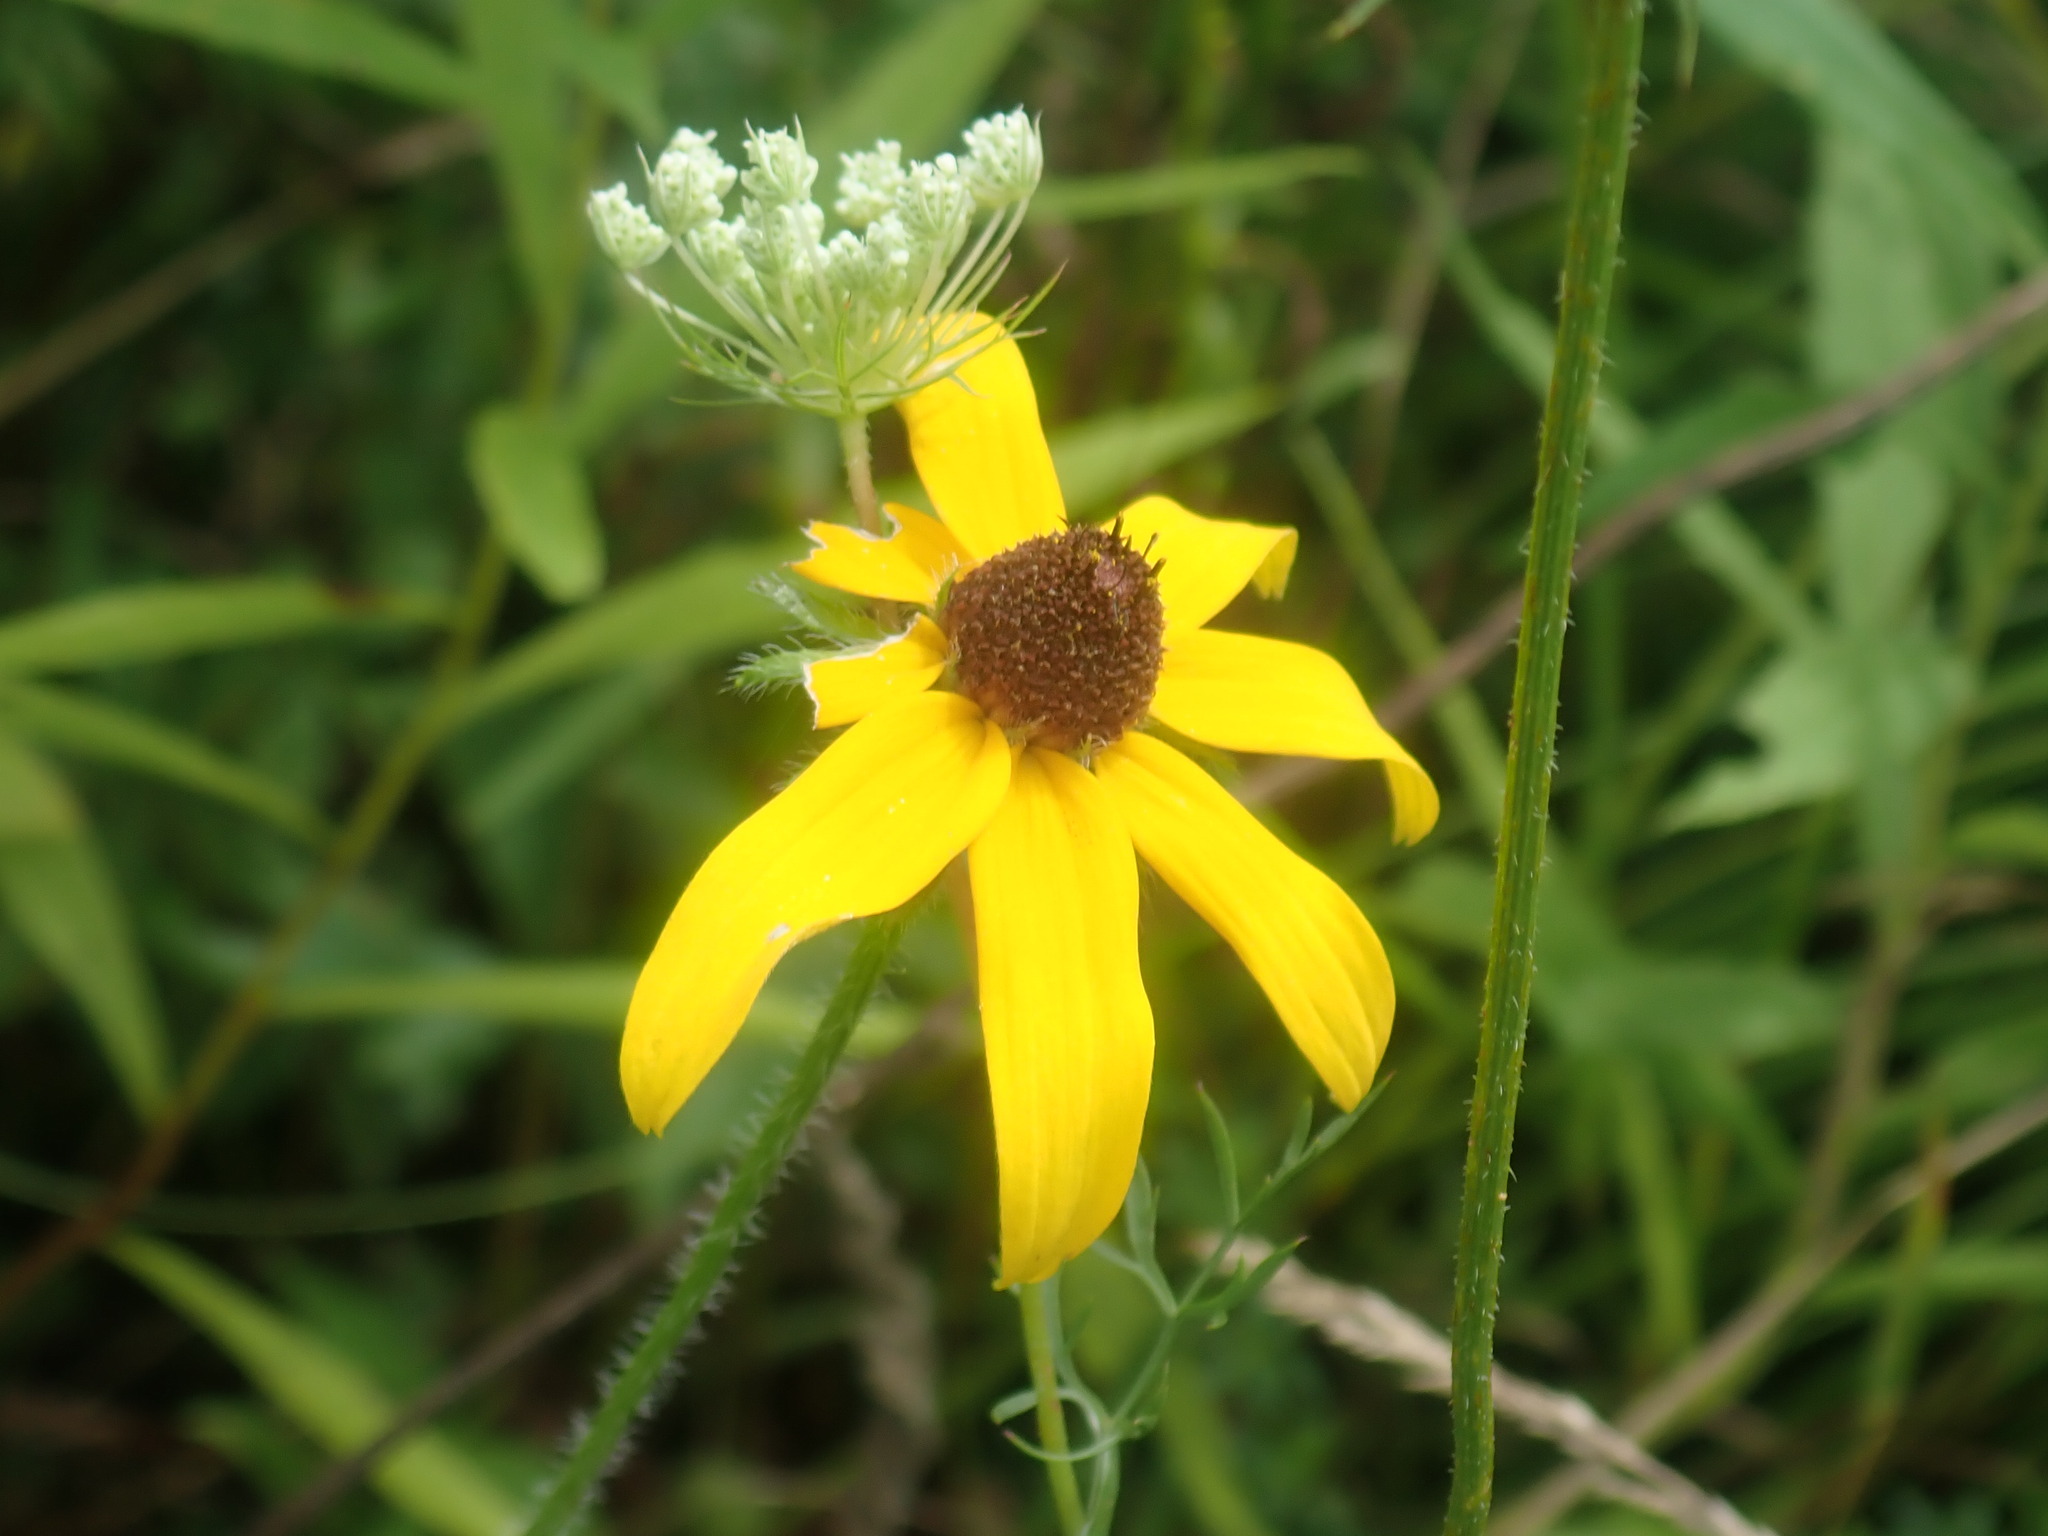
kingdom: Plantae
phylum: Tracheophyta
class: Magnoliopsida
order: Asterales
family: Asteraceae
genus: Rudbeckia
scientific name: Rudbeckia hirta
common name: Black-eyed-susan
